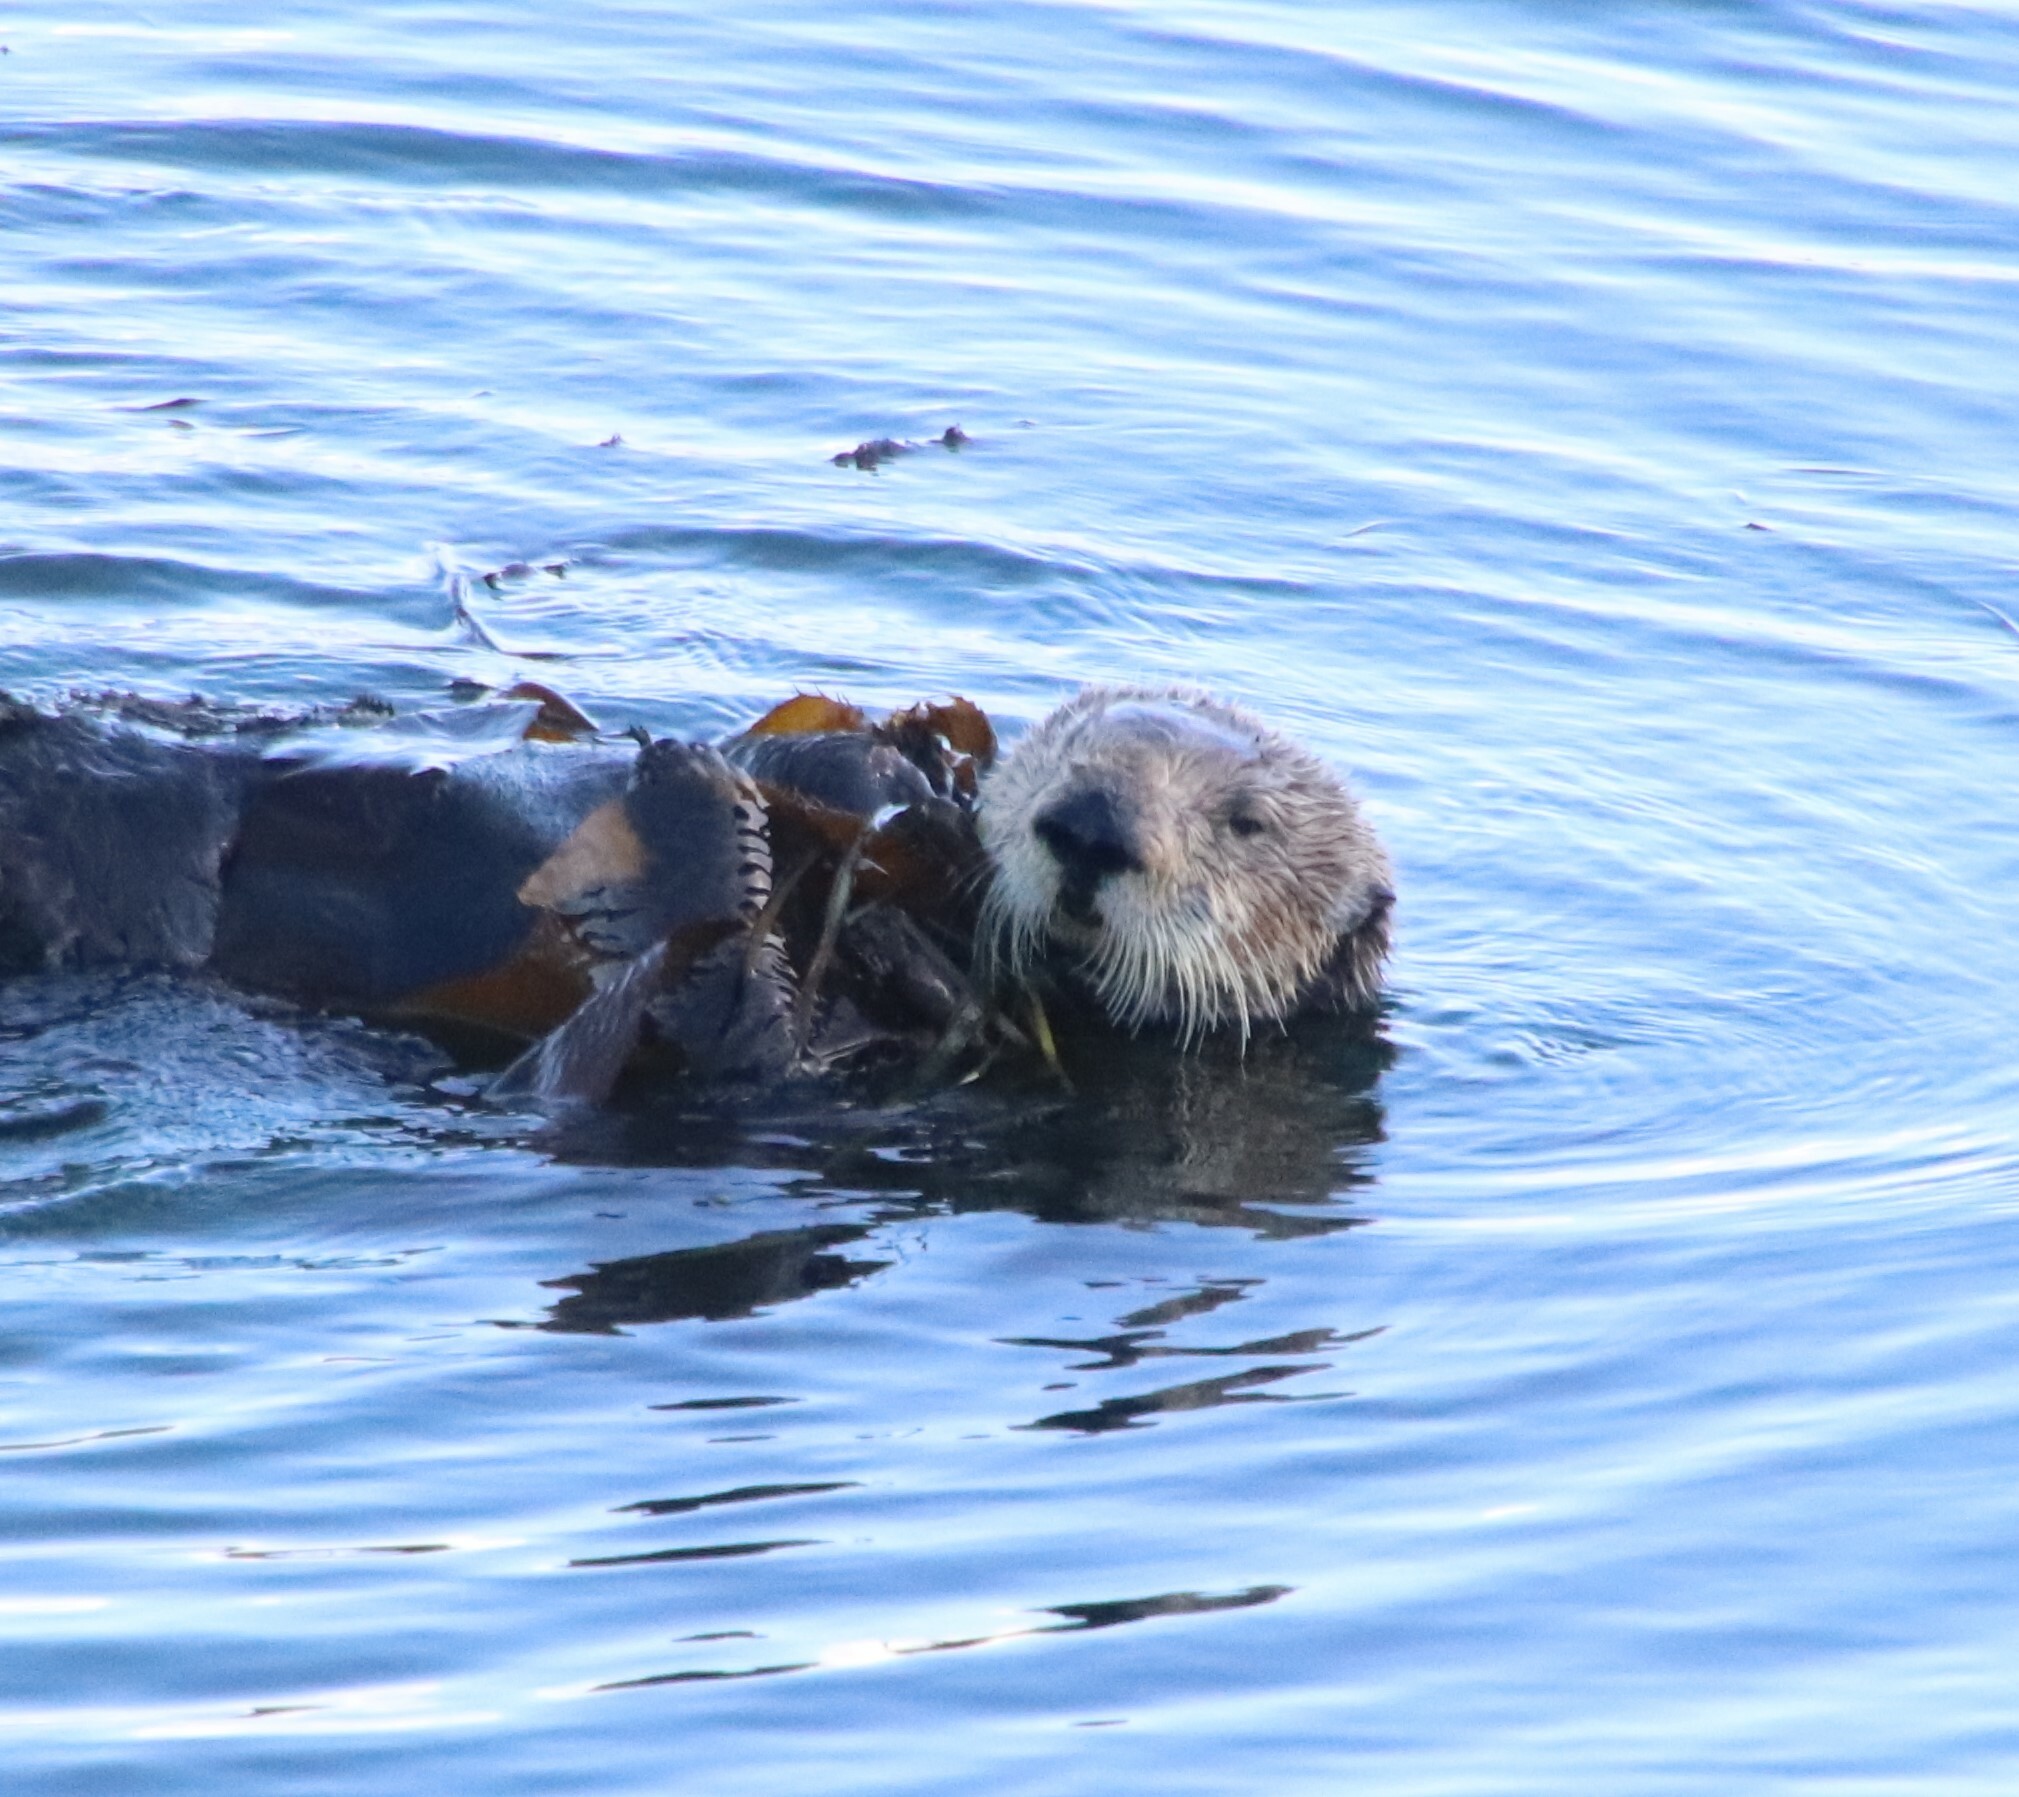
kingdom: Animalia
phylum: Chordata
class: Mammalia
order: Carnivora
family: Mustelidae
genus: Enhydra
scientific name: Enhydra lutris
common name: Sea otter
